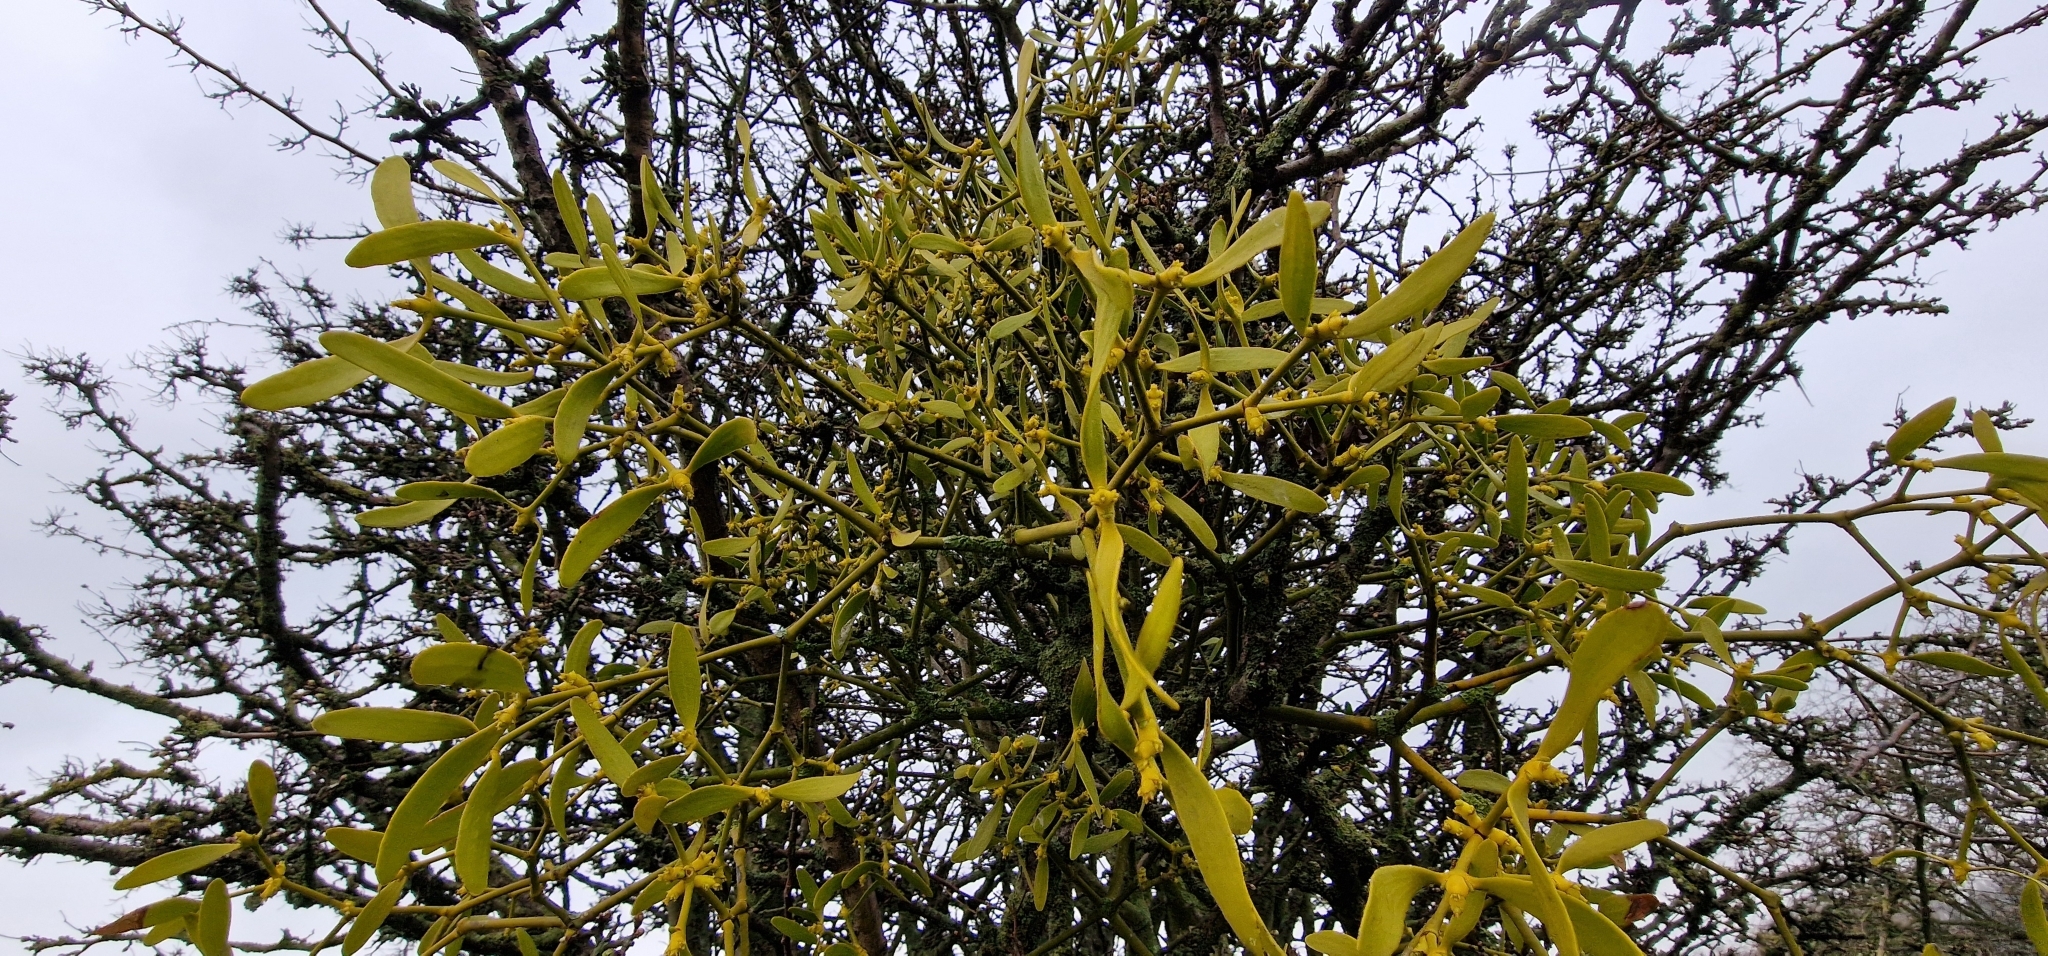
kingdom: Plantae
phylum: Tracheophyta
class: Magnoliopsida
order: Santalales
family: Viscaceae
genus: Viscum
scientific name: Viscum album
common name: Mistletoe
